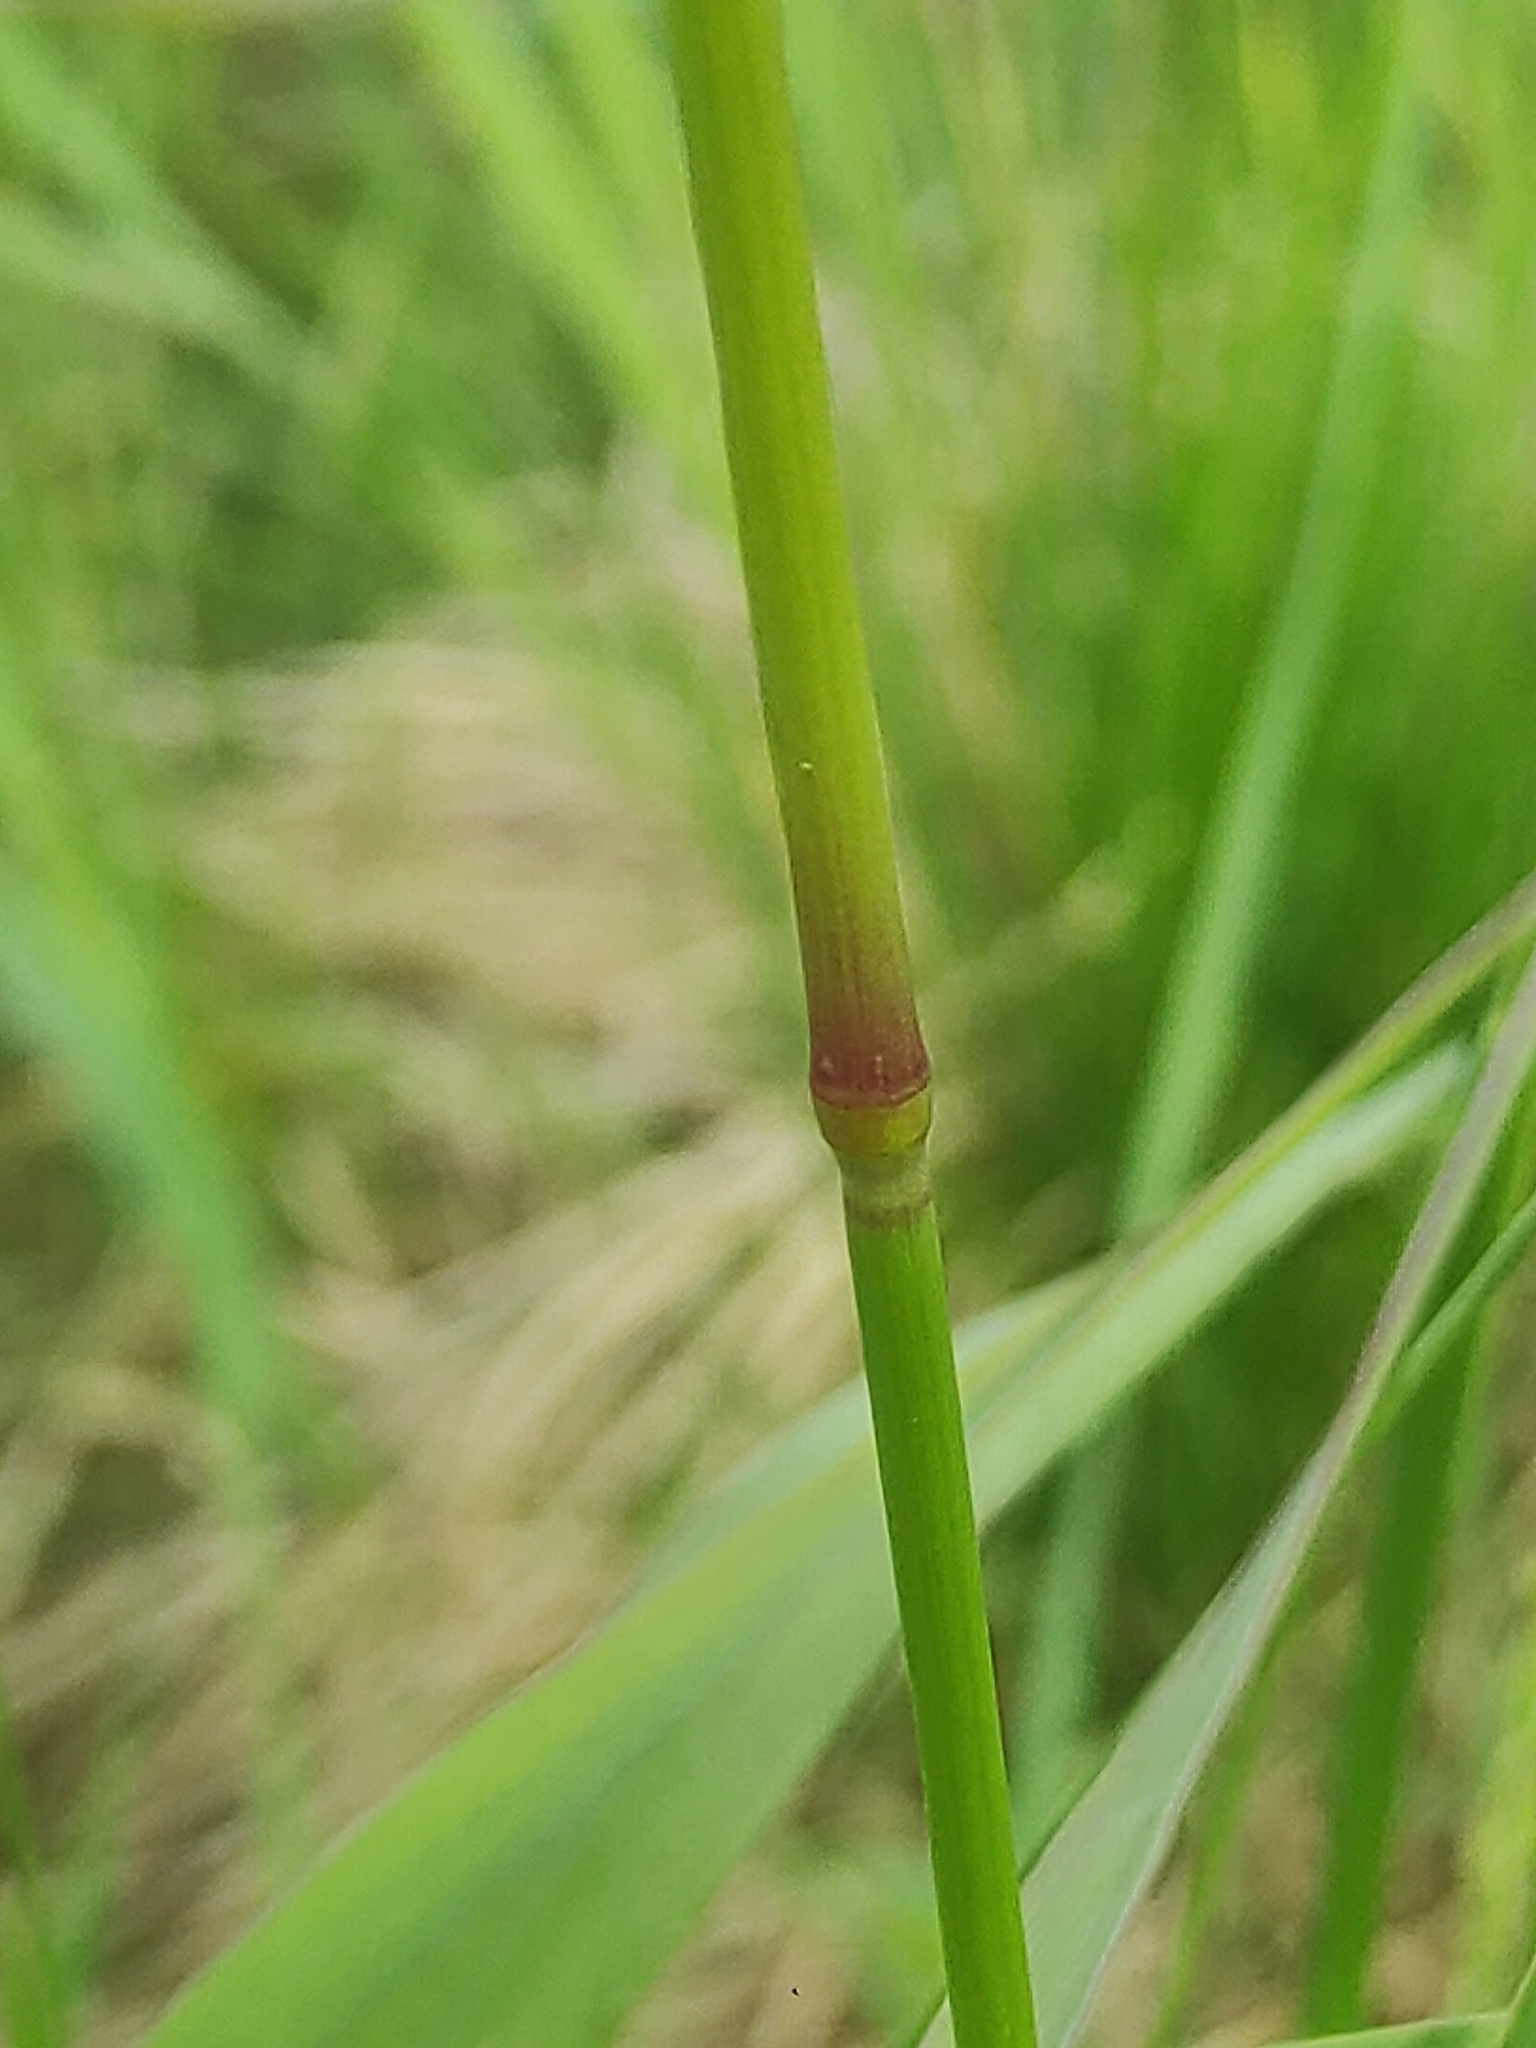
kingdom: Plantae
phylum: Tracheophyta
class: Liliopsida
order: Poales
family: Poaceae
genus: Alopecurus
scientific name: Alopecurus pratensis
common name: Meadow foxtail
